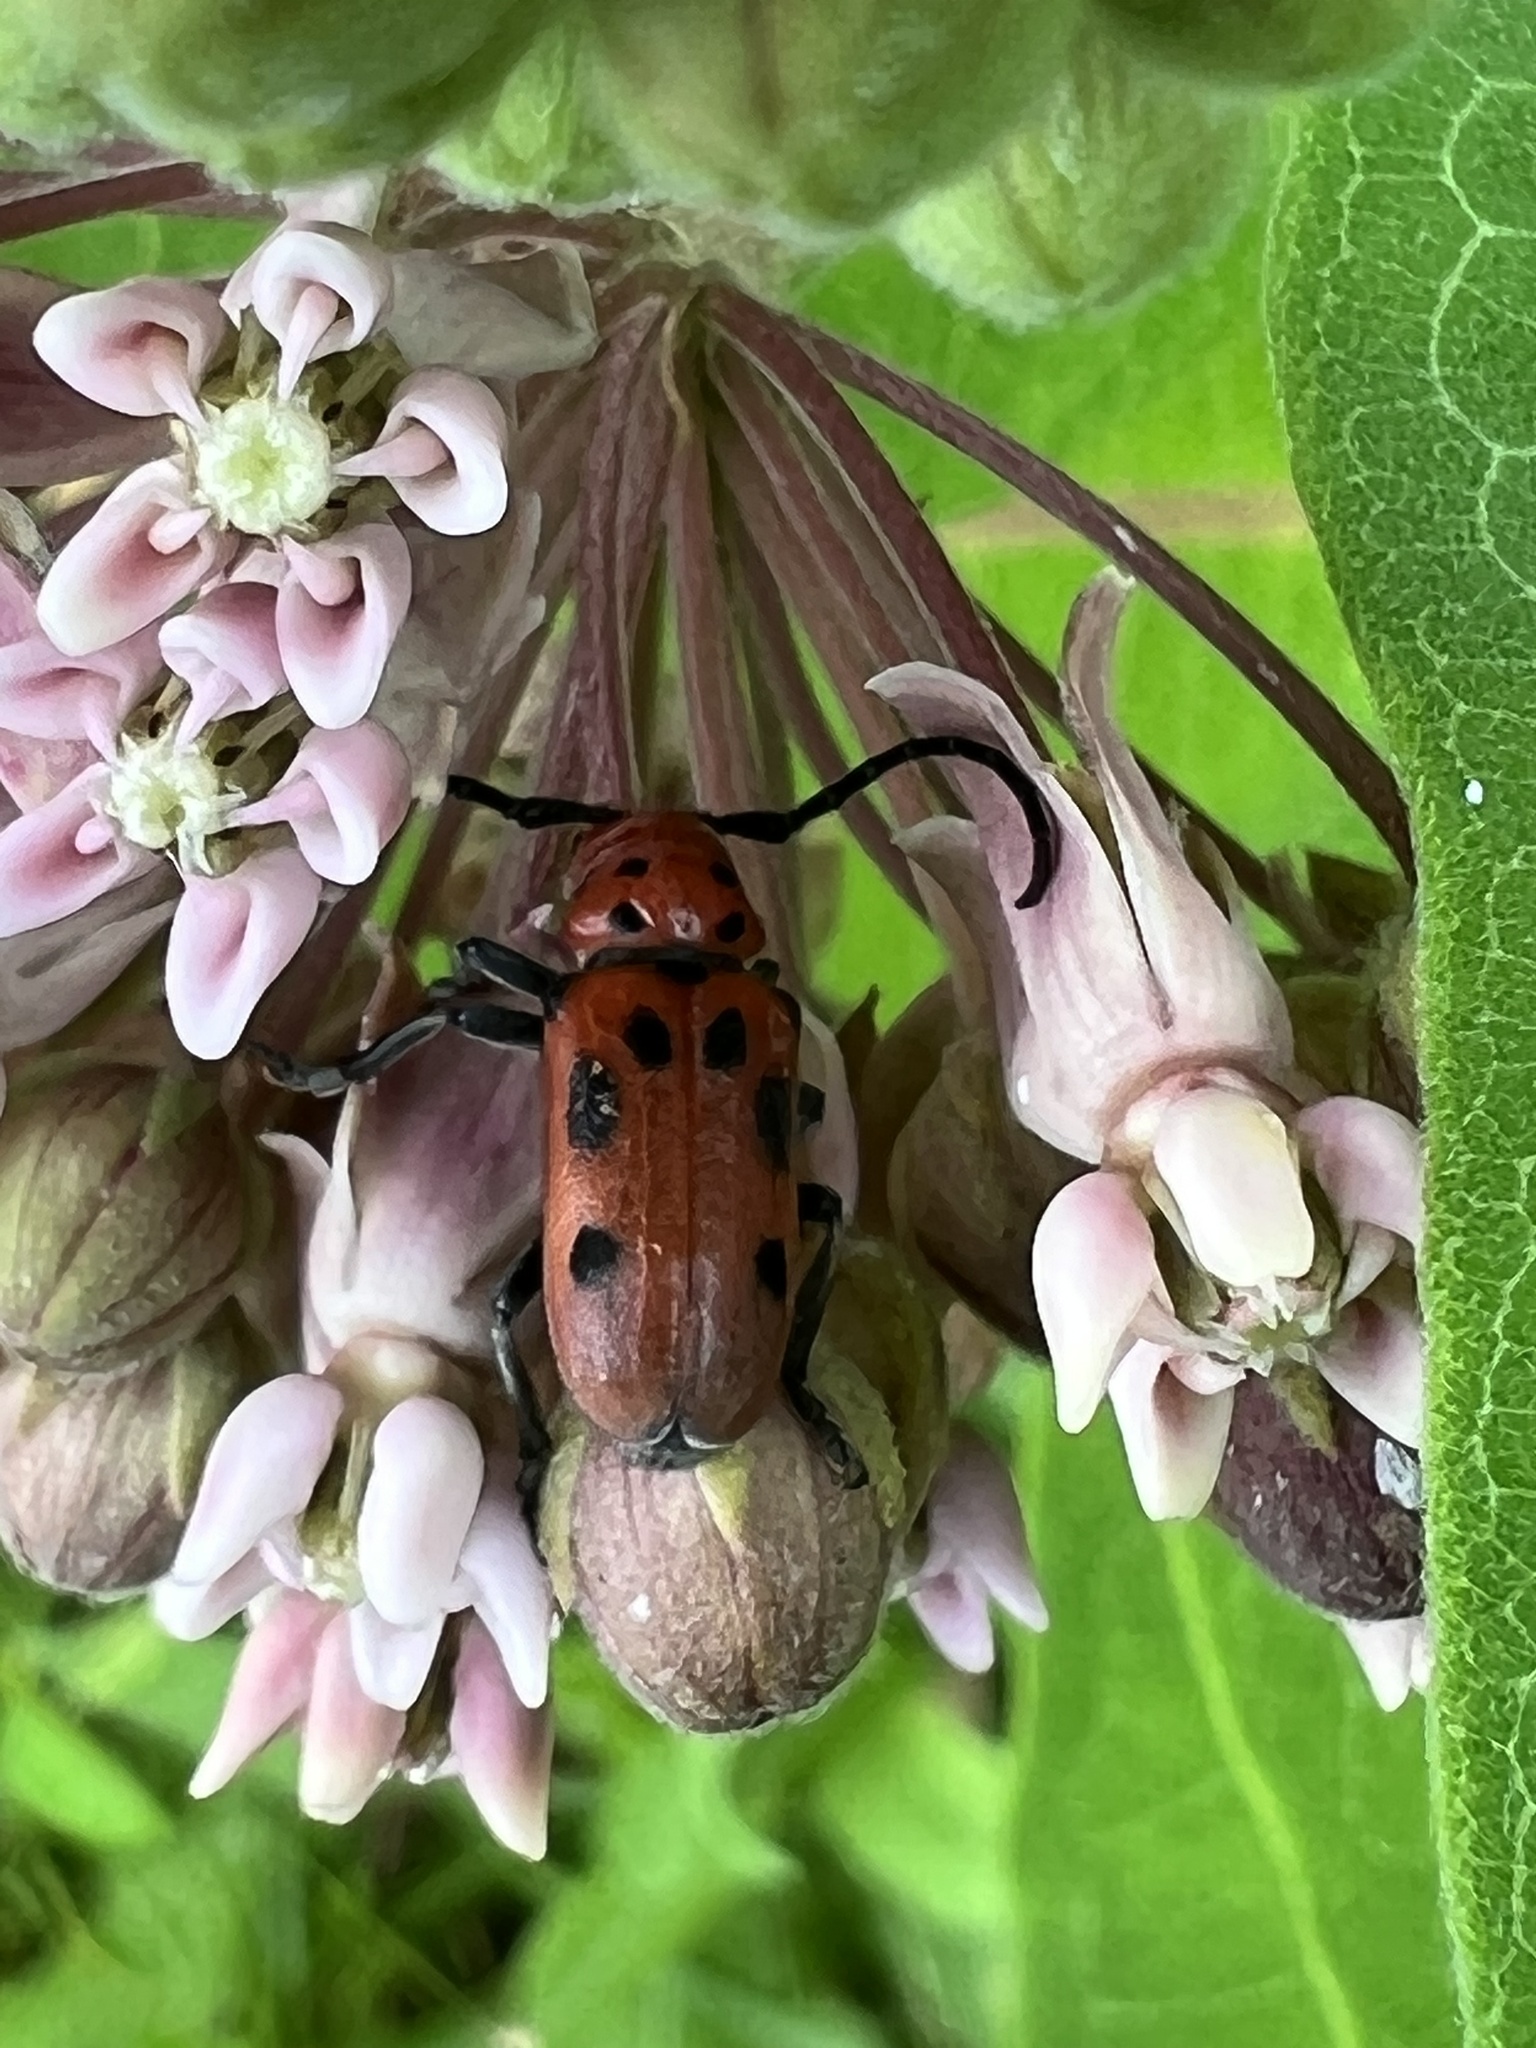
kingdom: Animalia
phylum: Arthropoda
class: Insecta
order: Coleoptera
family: Cerambycidae
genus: Tetraopes
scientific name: Tetraopes tetrophthalmus
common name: Red milkweed beetle
